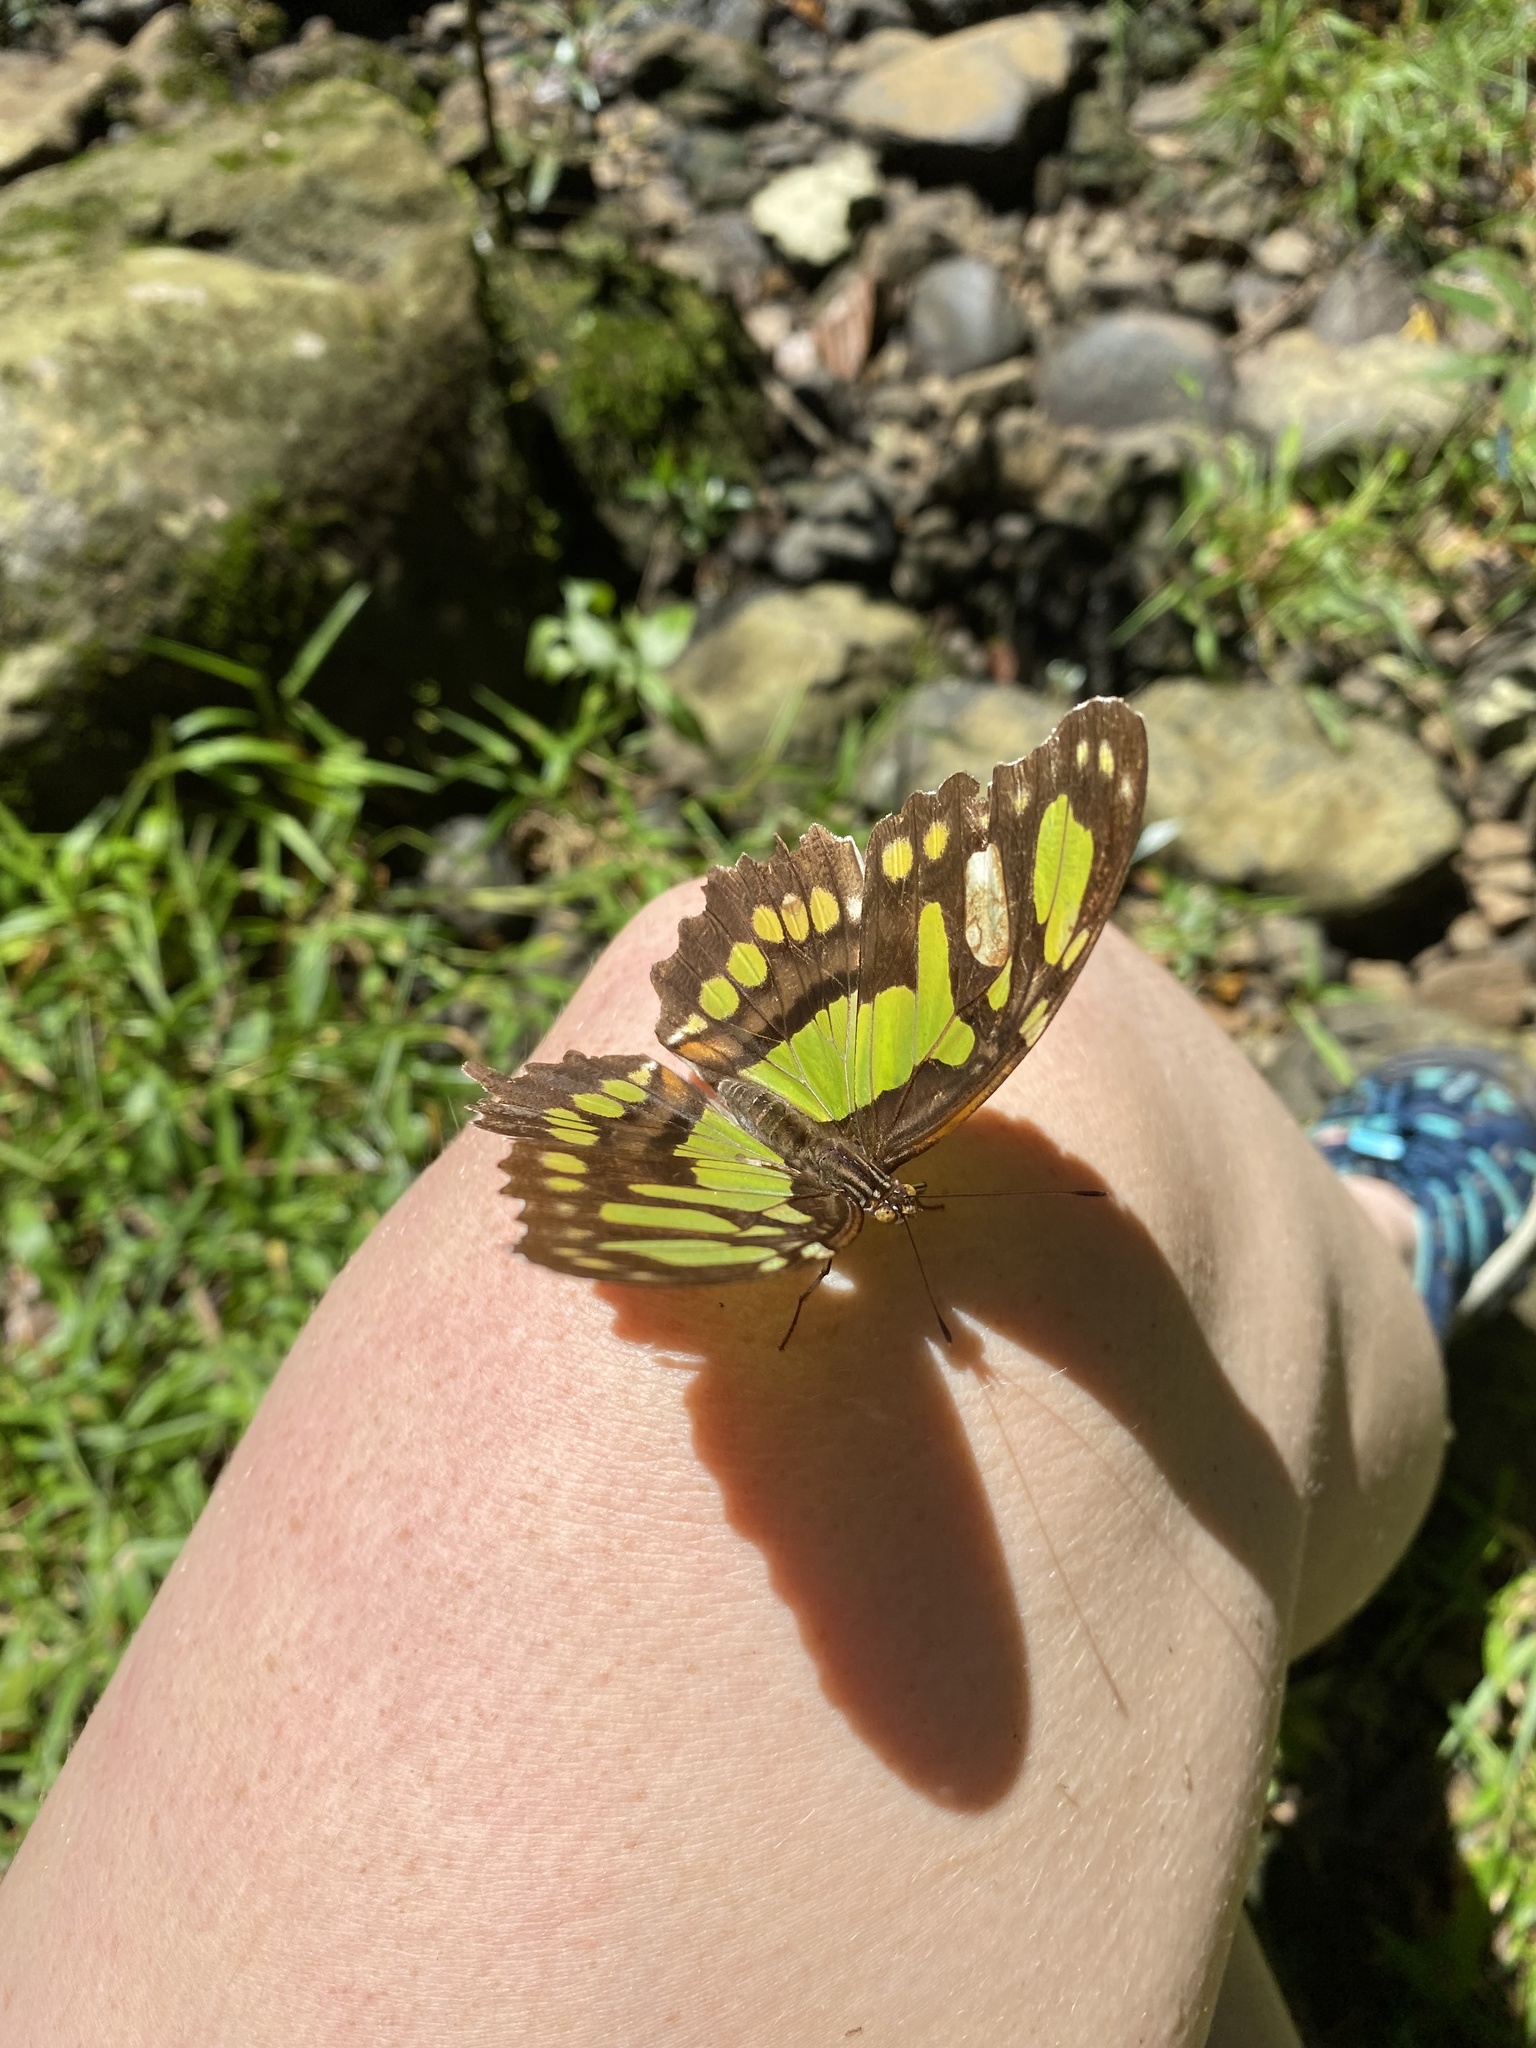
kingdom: Animalia
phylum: Arthropoda
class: Insecta
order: Lepidoptera
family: Nymphalidae
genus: Siproeta
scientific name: Siproeta stelenes
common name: Malachite
